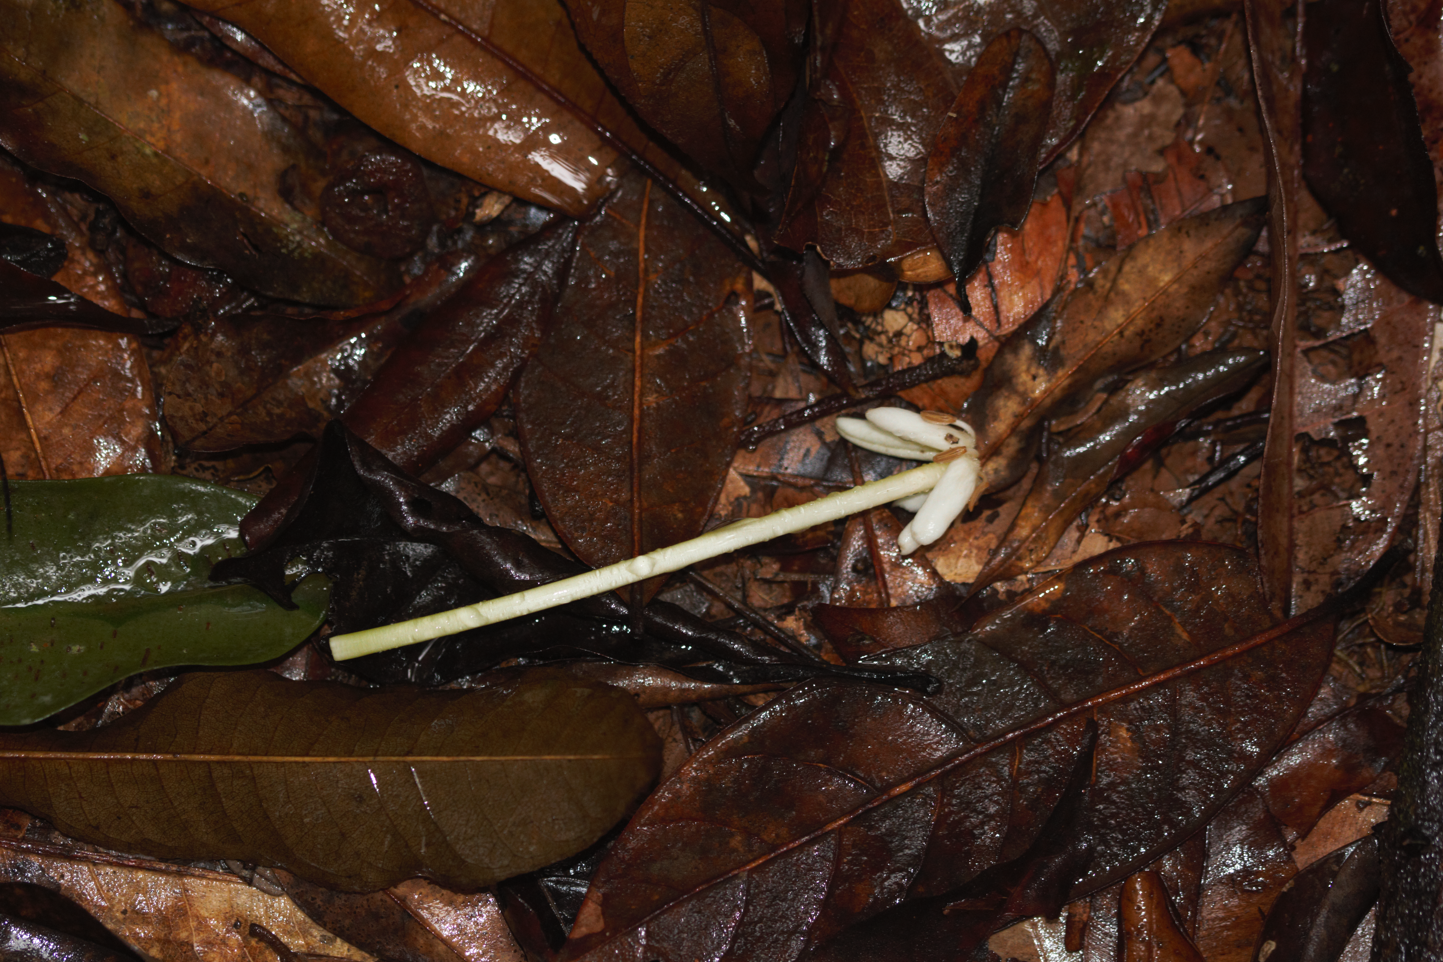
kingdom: Plantae
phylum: Tracheophyta
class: Magnoliopsida
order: Gentianales
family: Rubiaceae
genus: Posoqueria
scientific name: Posoqueria latifolia
